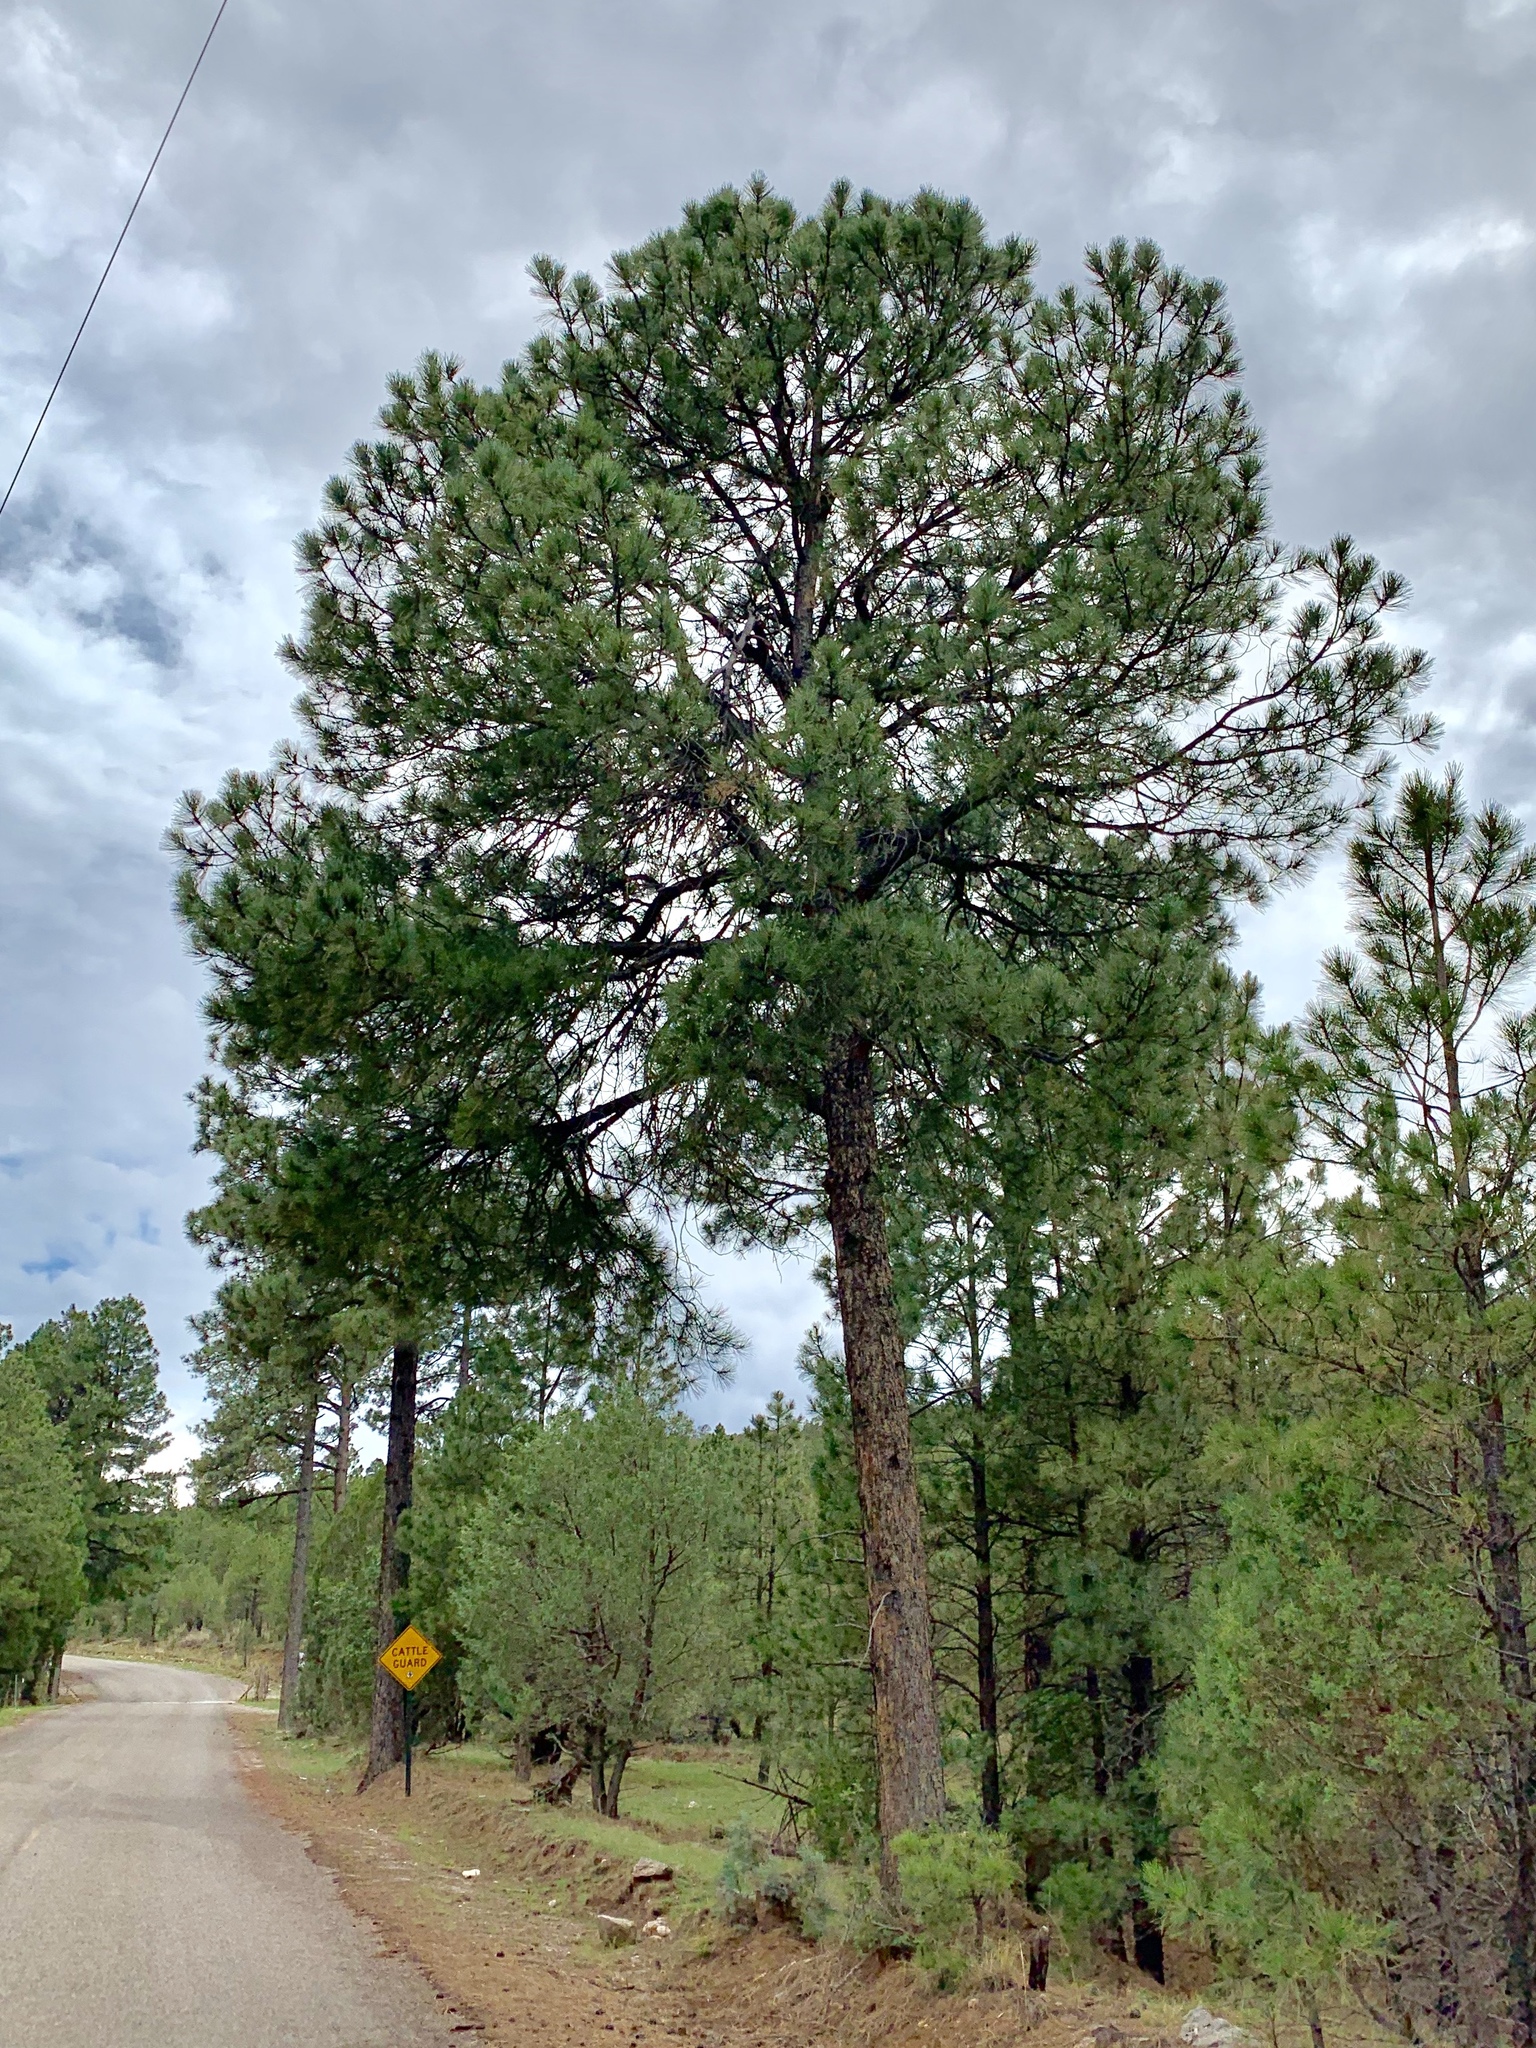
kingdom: Plantae
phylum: Tracheophyta
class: Pinopsida
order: Pinales
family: Pinaceae
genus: Pinus
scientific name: Pinus ponderosa
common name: Western yellow-pine
